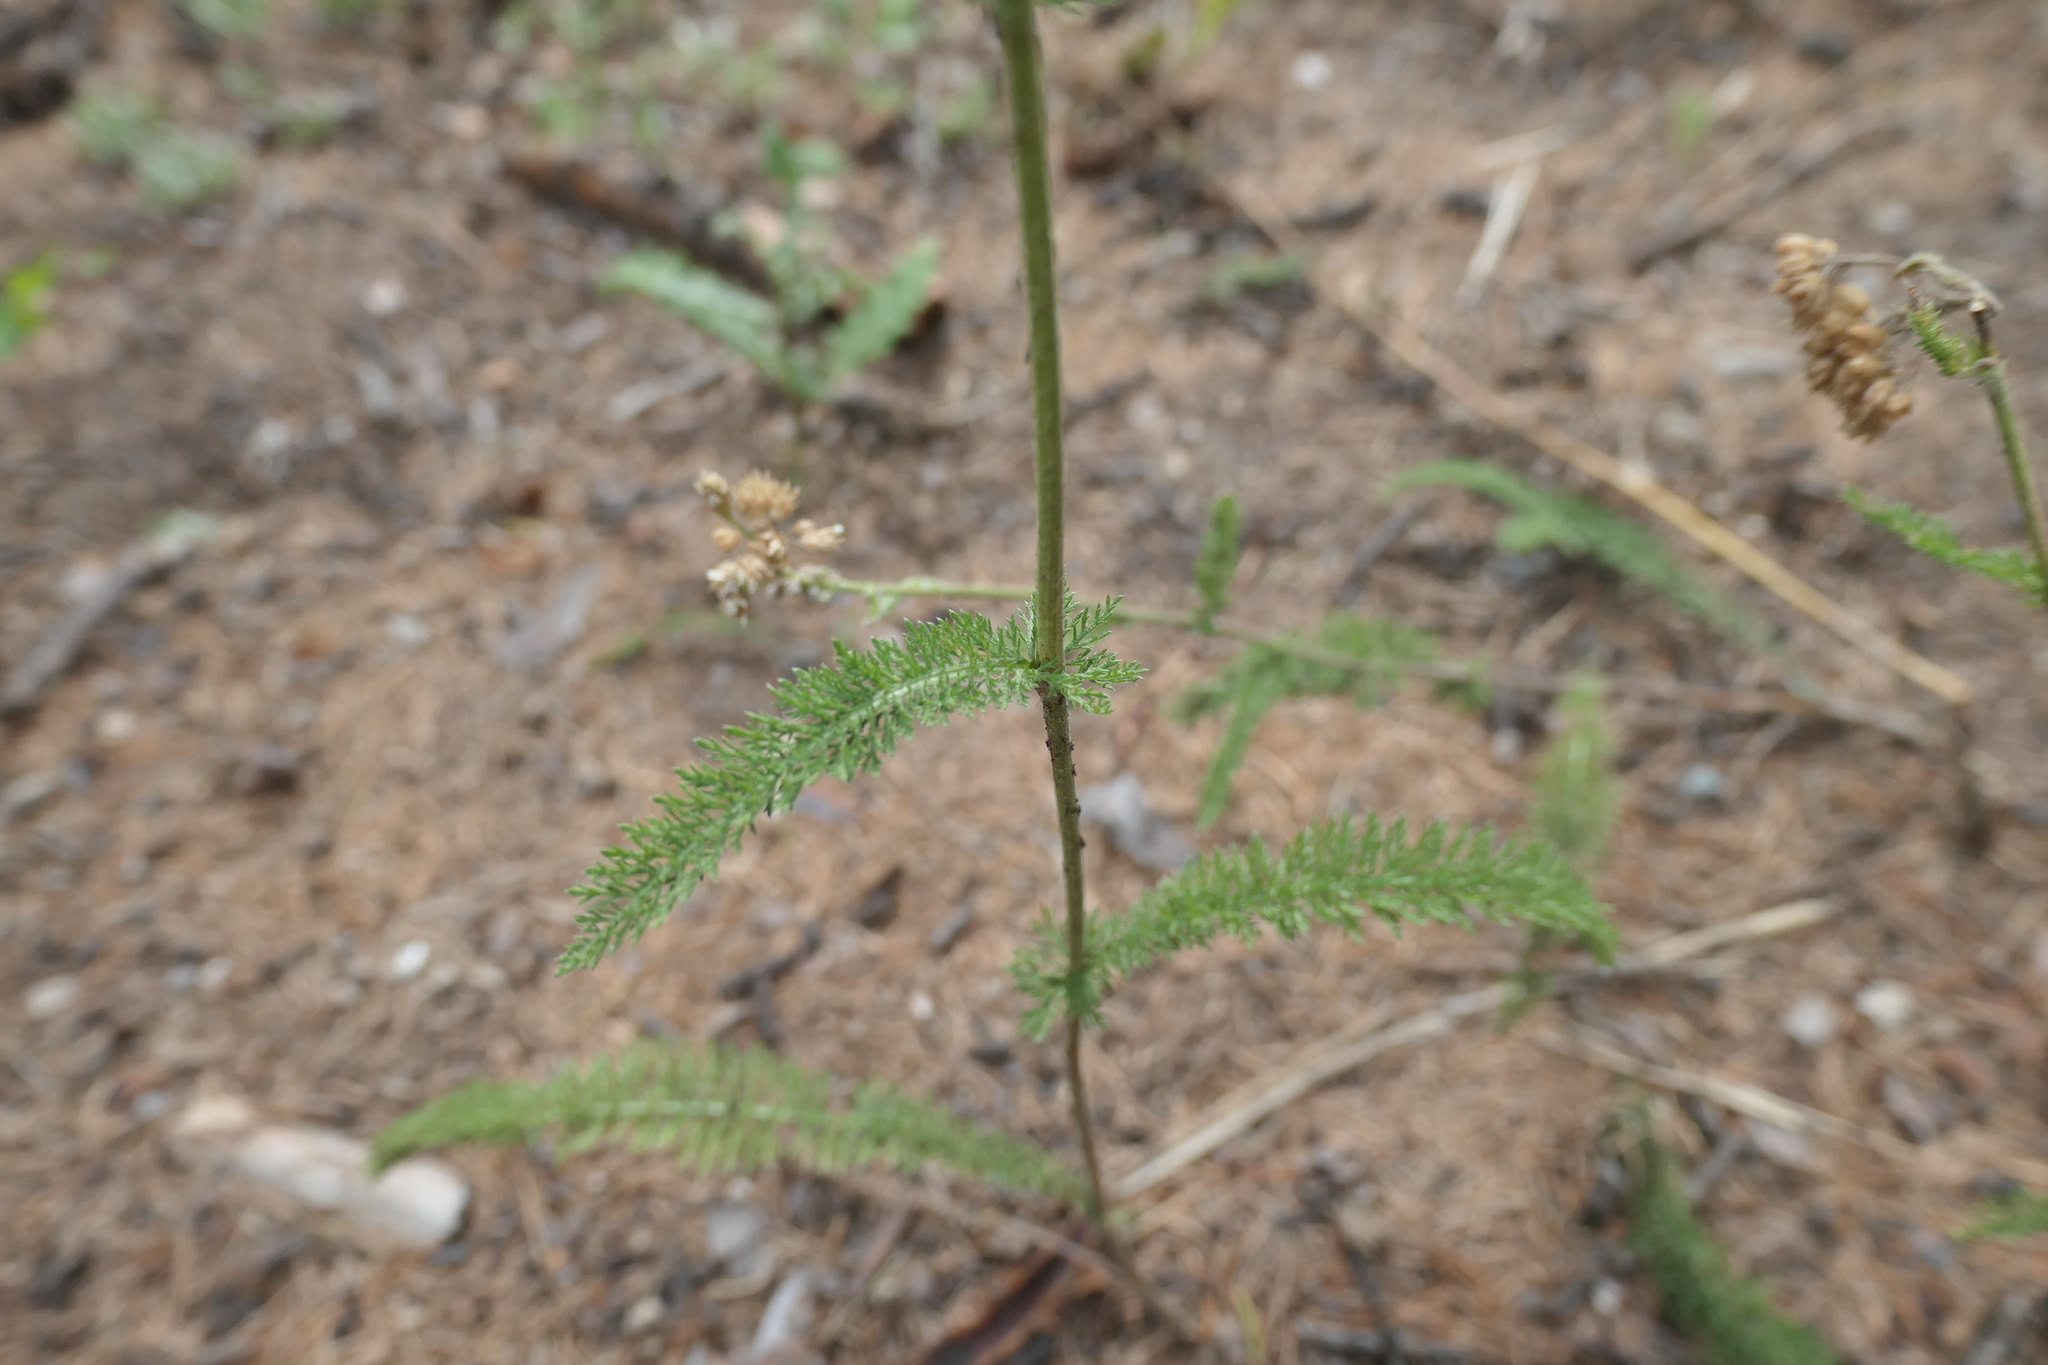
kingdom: Plantae
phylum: Tracheophyta
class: Magnoliopsida
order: Asterales
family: Asteraceae
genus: Achillea
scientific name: Achillea millefolium
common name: Yarrow
